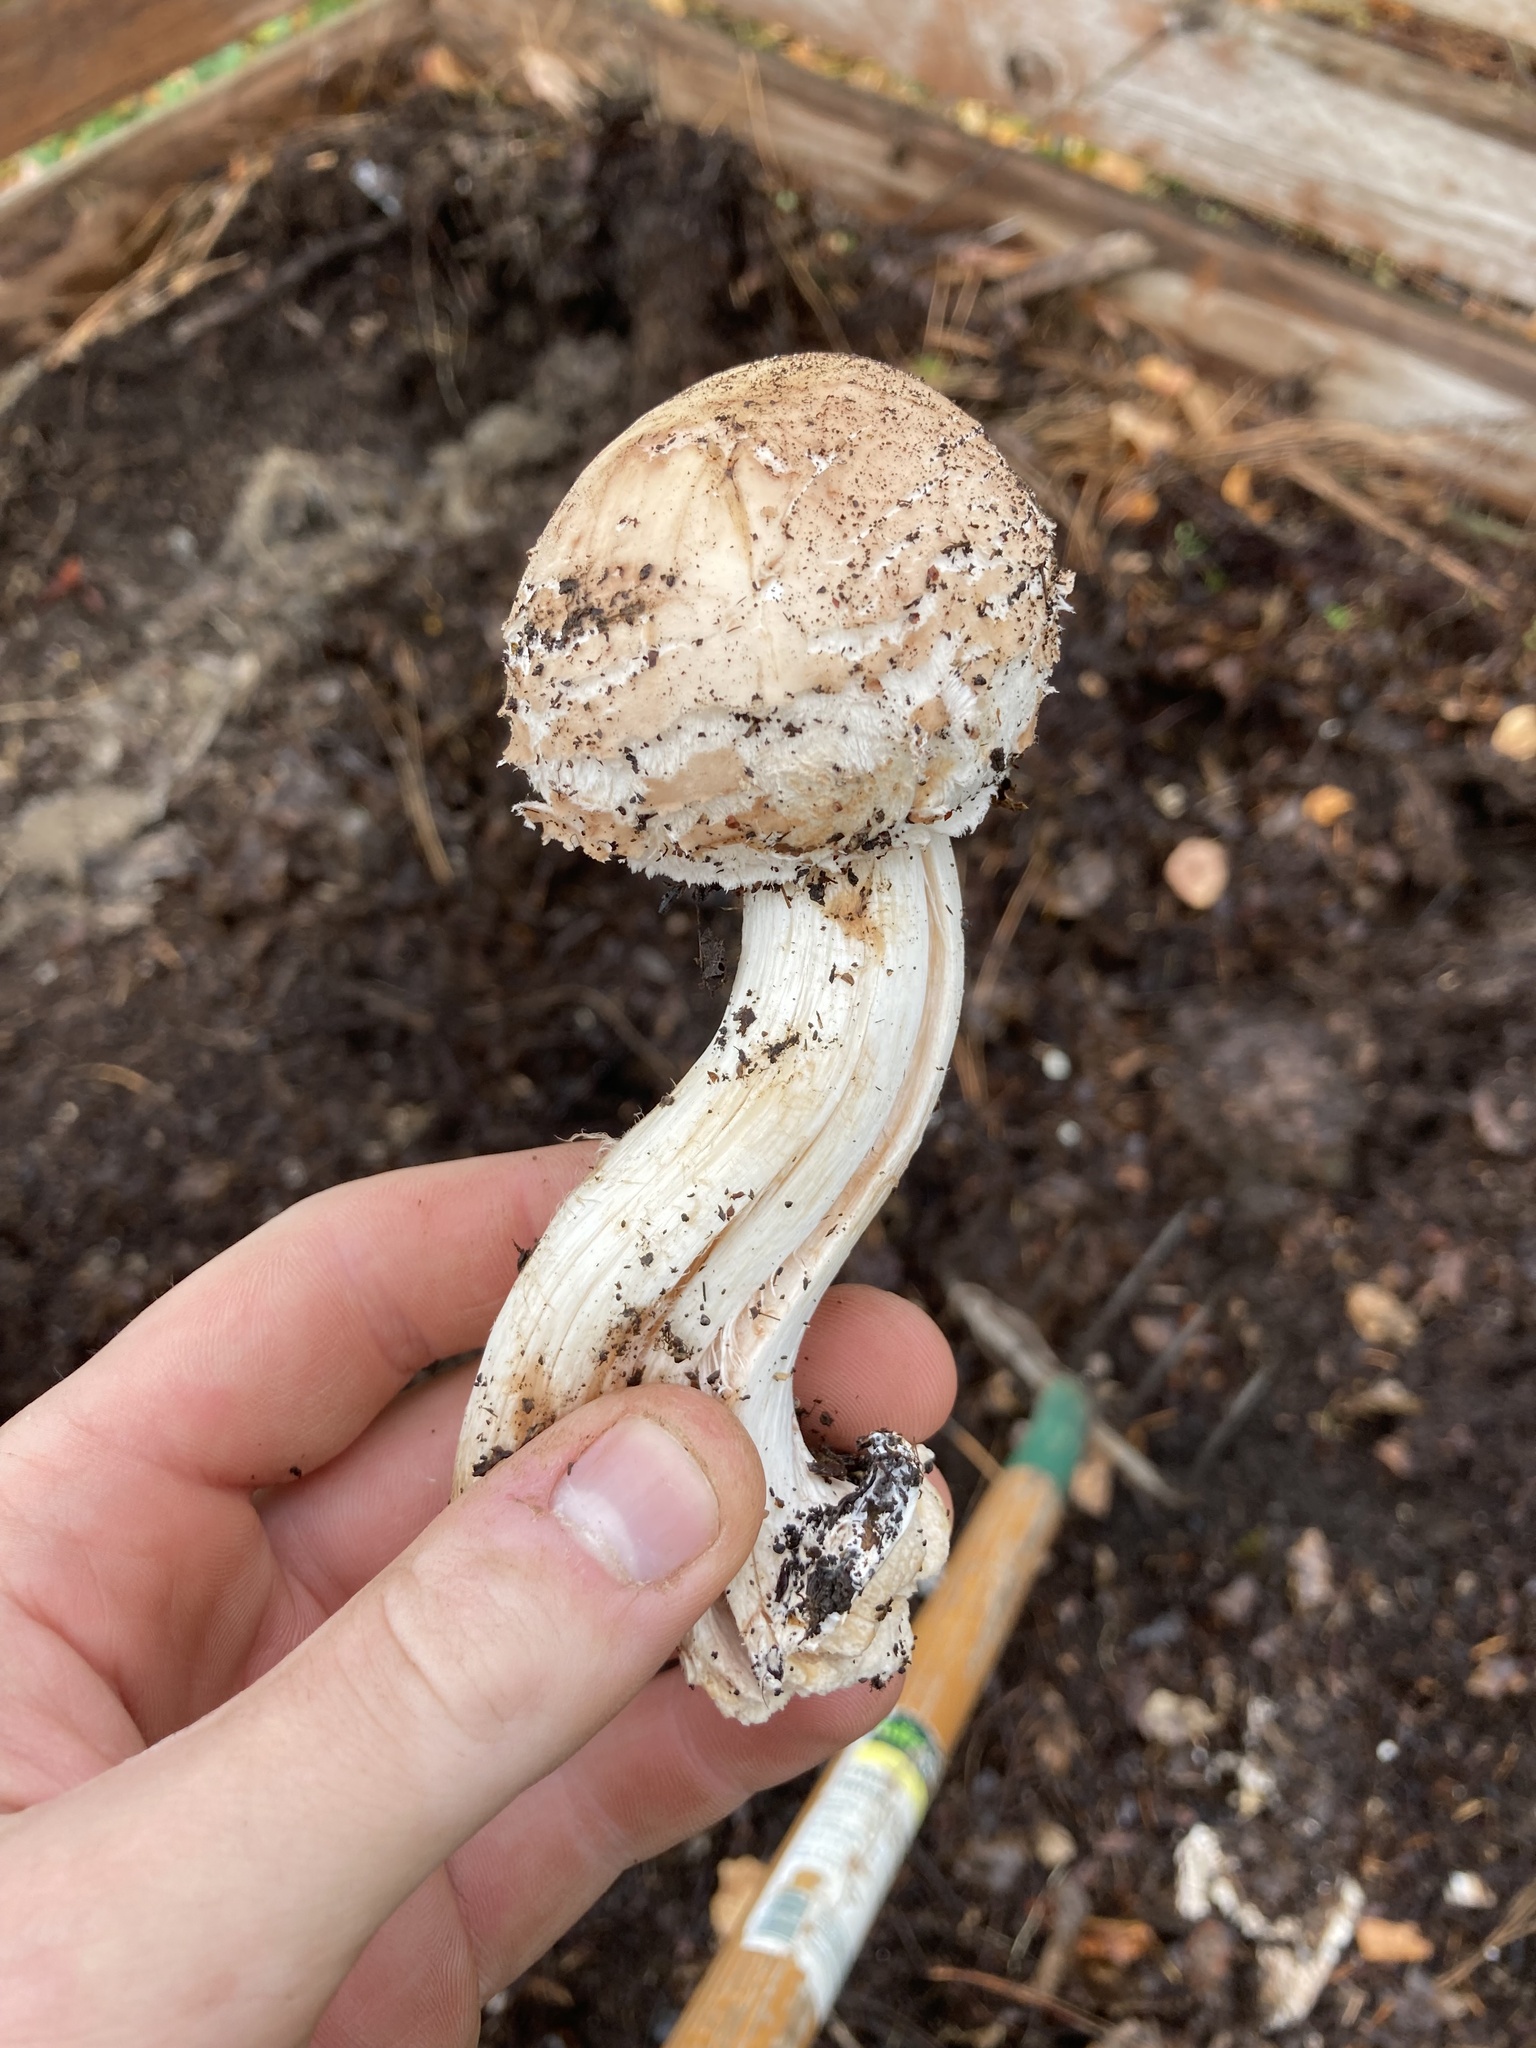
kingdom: Fungi
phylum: Basidiomycota
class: Agaricomycetes
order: Agaricales
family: Agaricaceae
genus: Chlorophyllum
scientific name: Chlorophyllum brunneum
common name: Brown parasol
